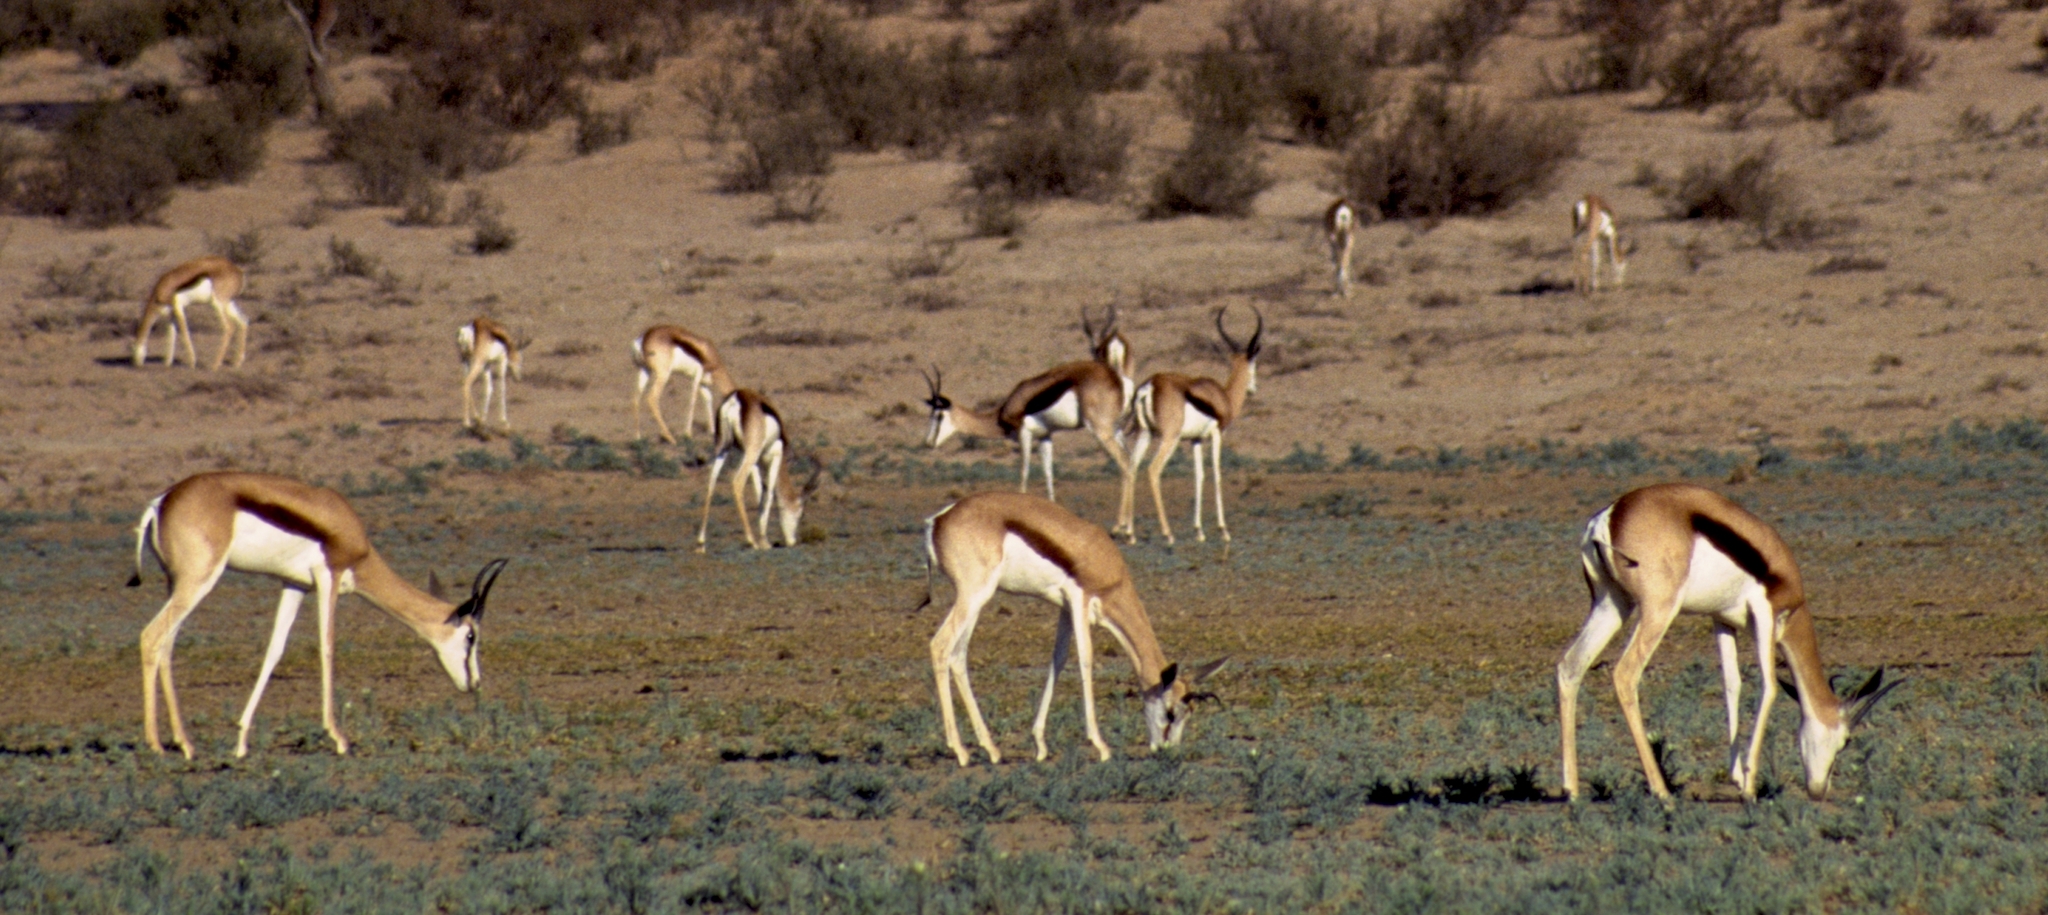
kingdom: Animalia
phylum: Chordata
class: Mammalia
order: Artiodactyla
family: Bovidae
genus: Antidorcas
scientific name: Antidorcas marsupialis
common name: Springbok
